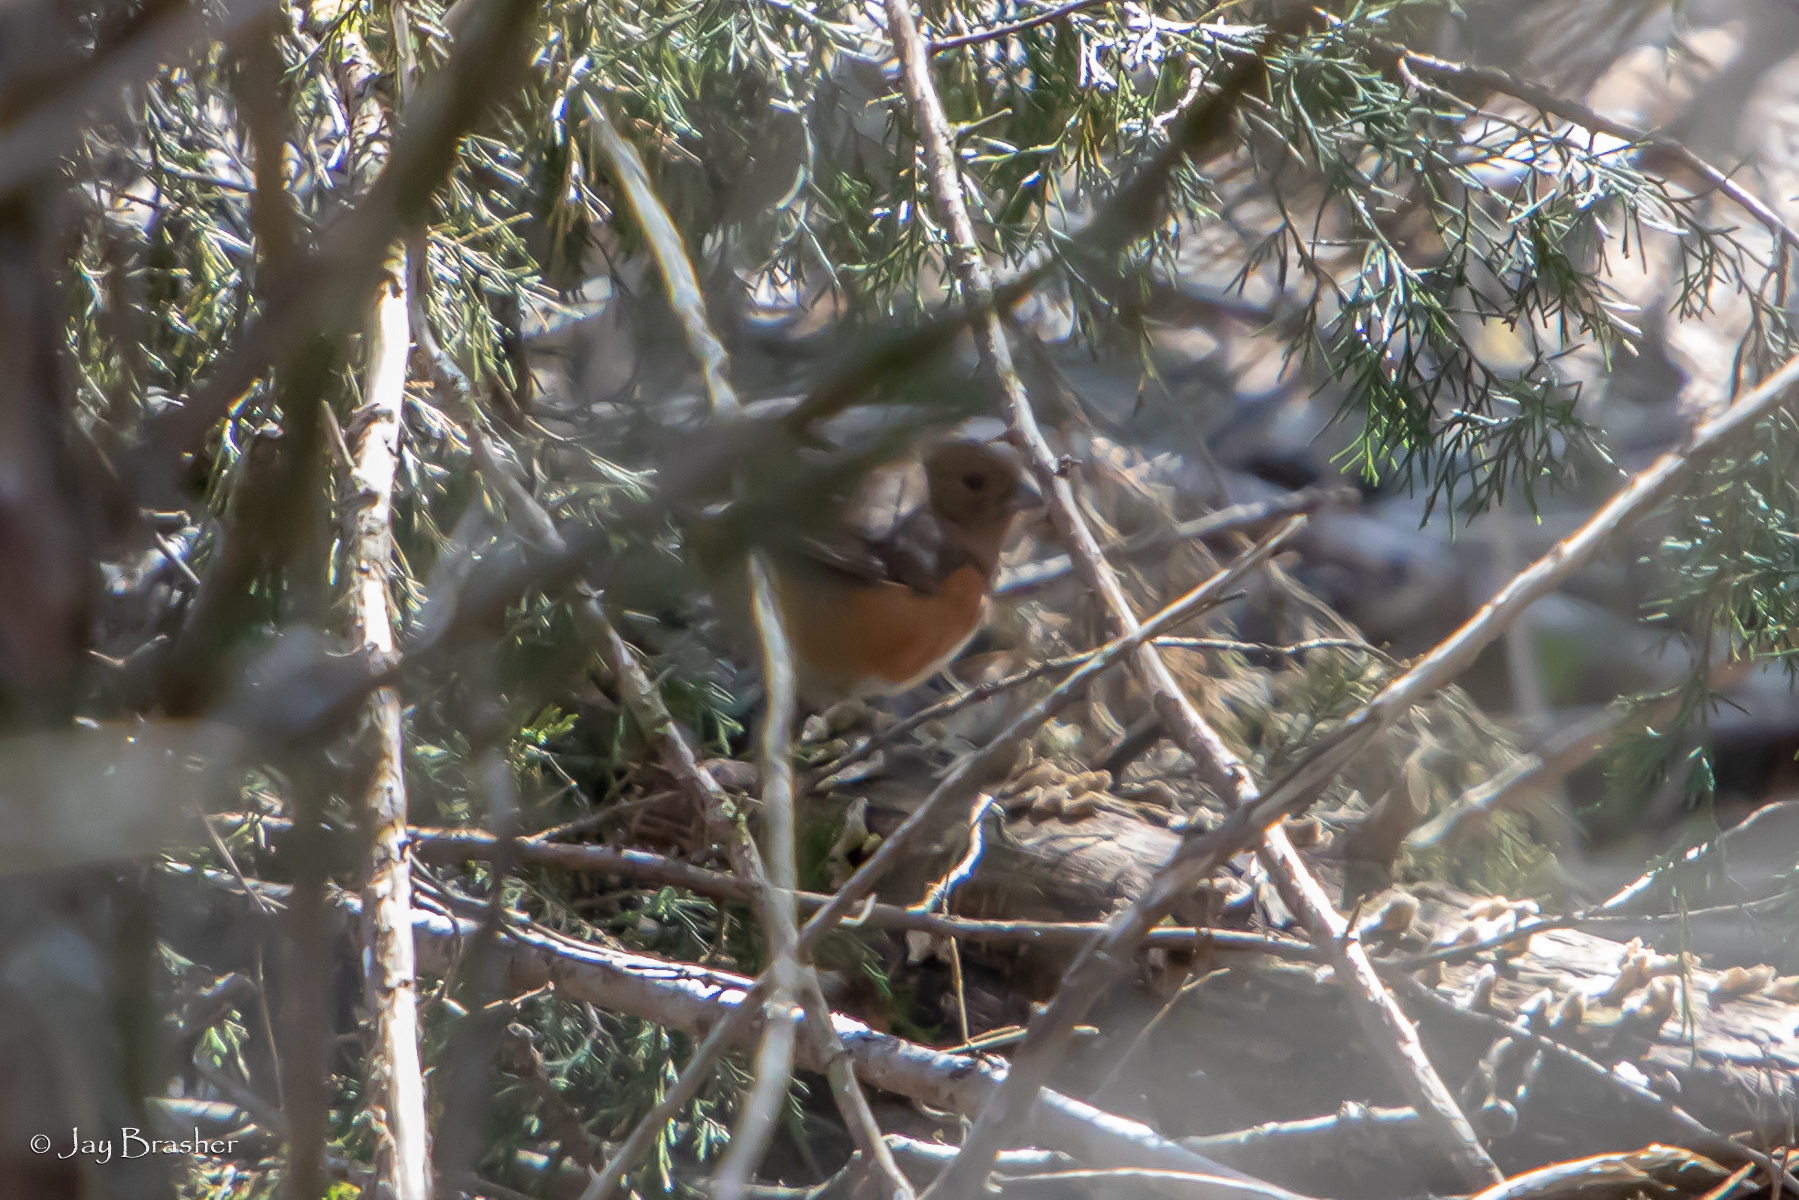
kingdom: Animalia
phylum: Chordata
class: Aves
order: Passeriformes
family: Passerellidae
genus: Pipilo
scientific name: Pipilo erythrophthalmus
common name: Eastern towhee
